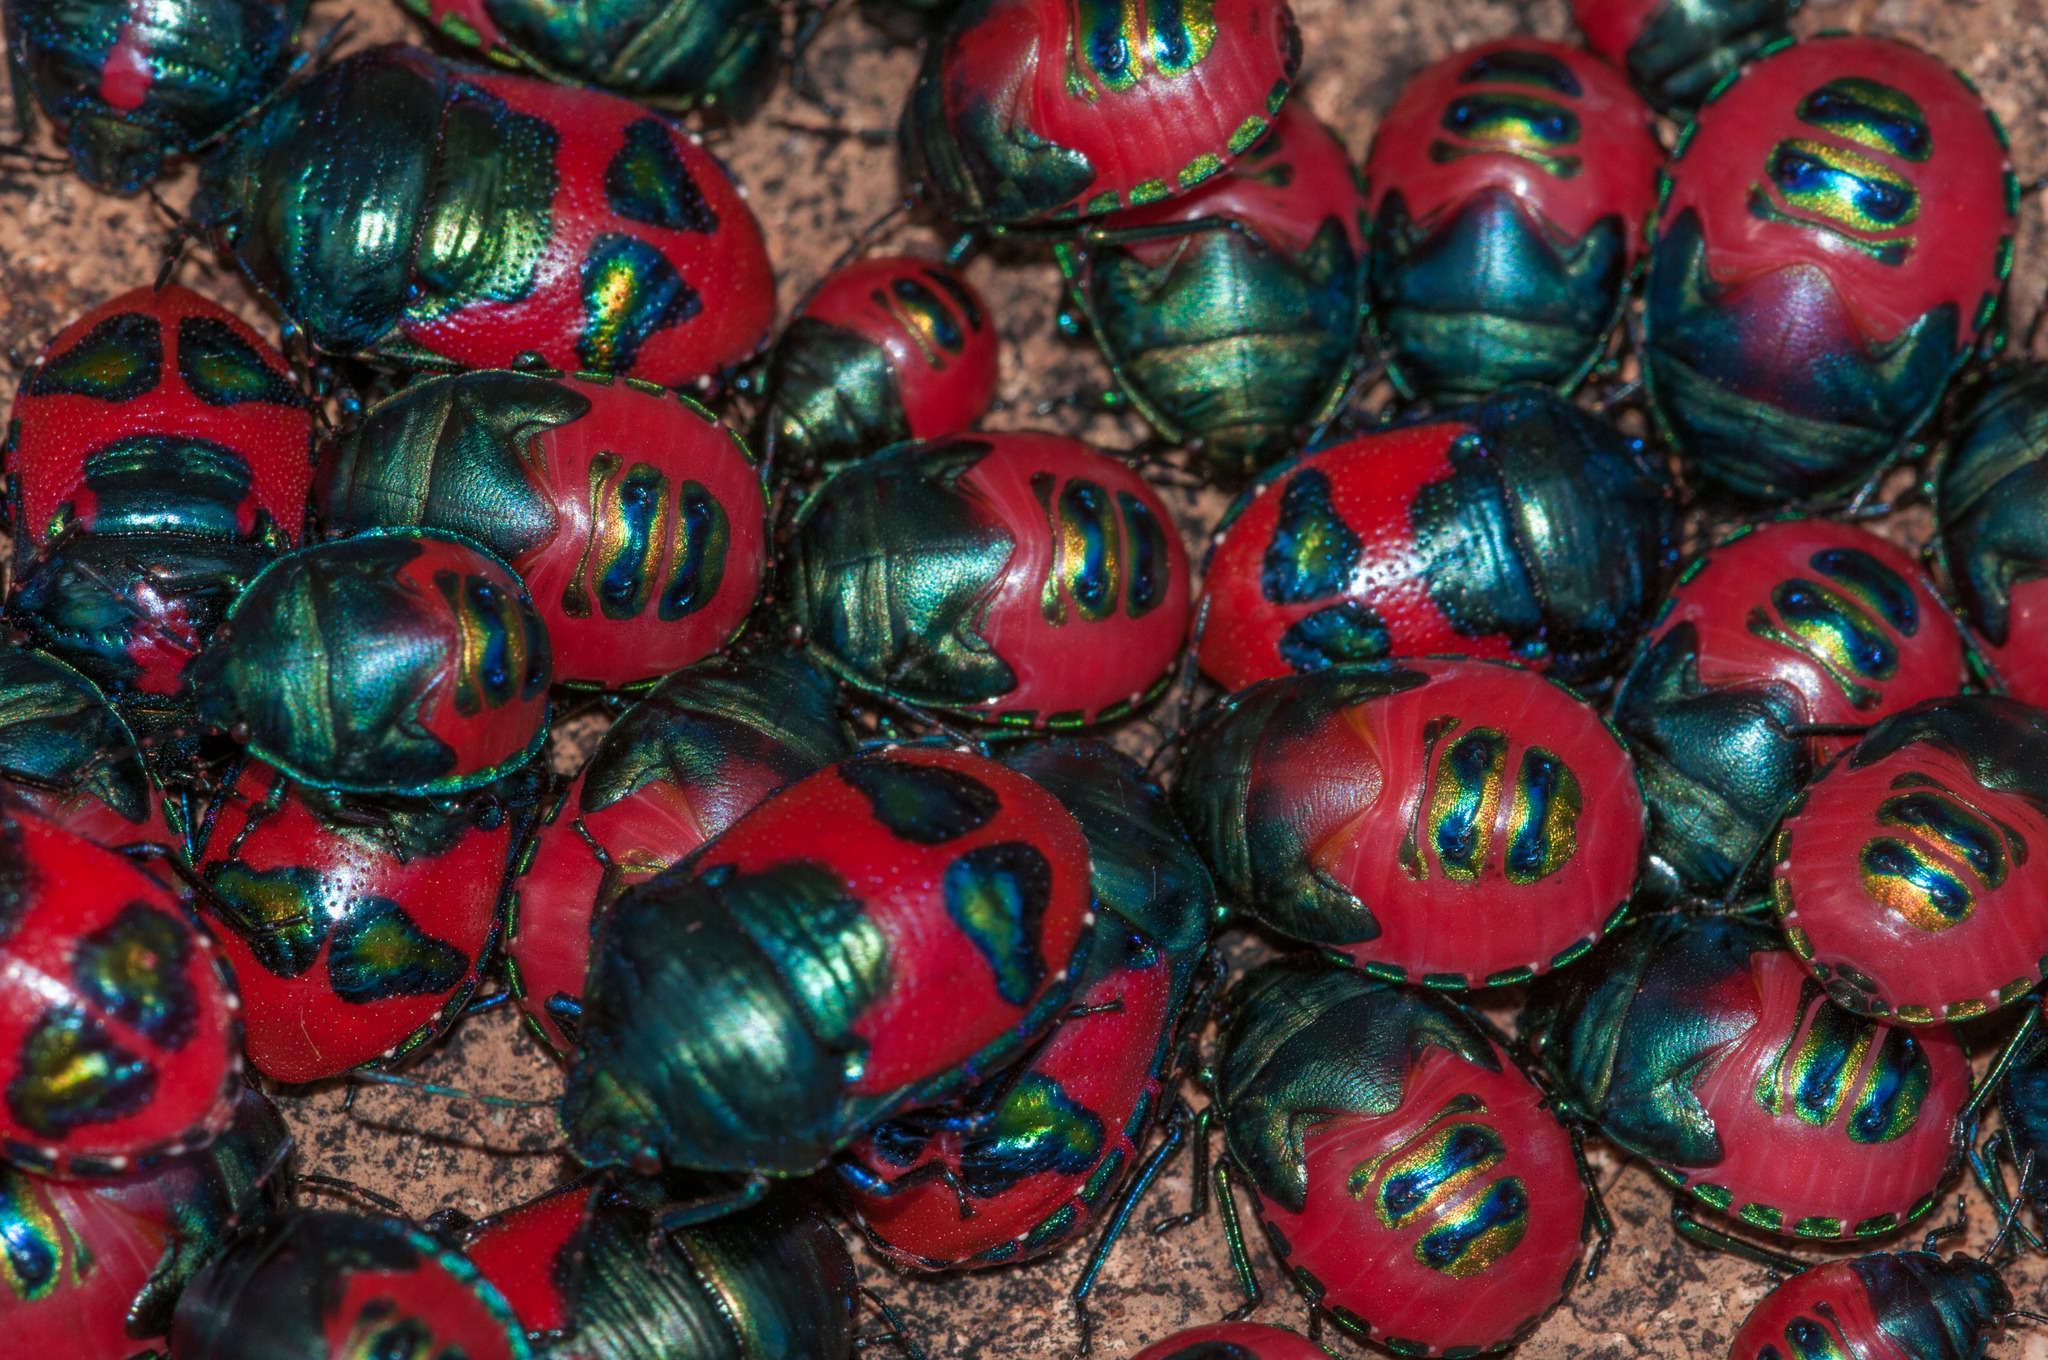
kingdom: Animalia
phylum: Arthropoda
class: Insecta
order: Hemiptera
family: Scutelleridae
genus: Choerocoris
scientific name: Choerocoris paganus
